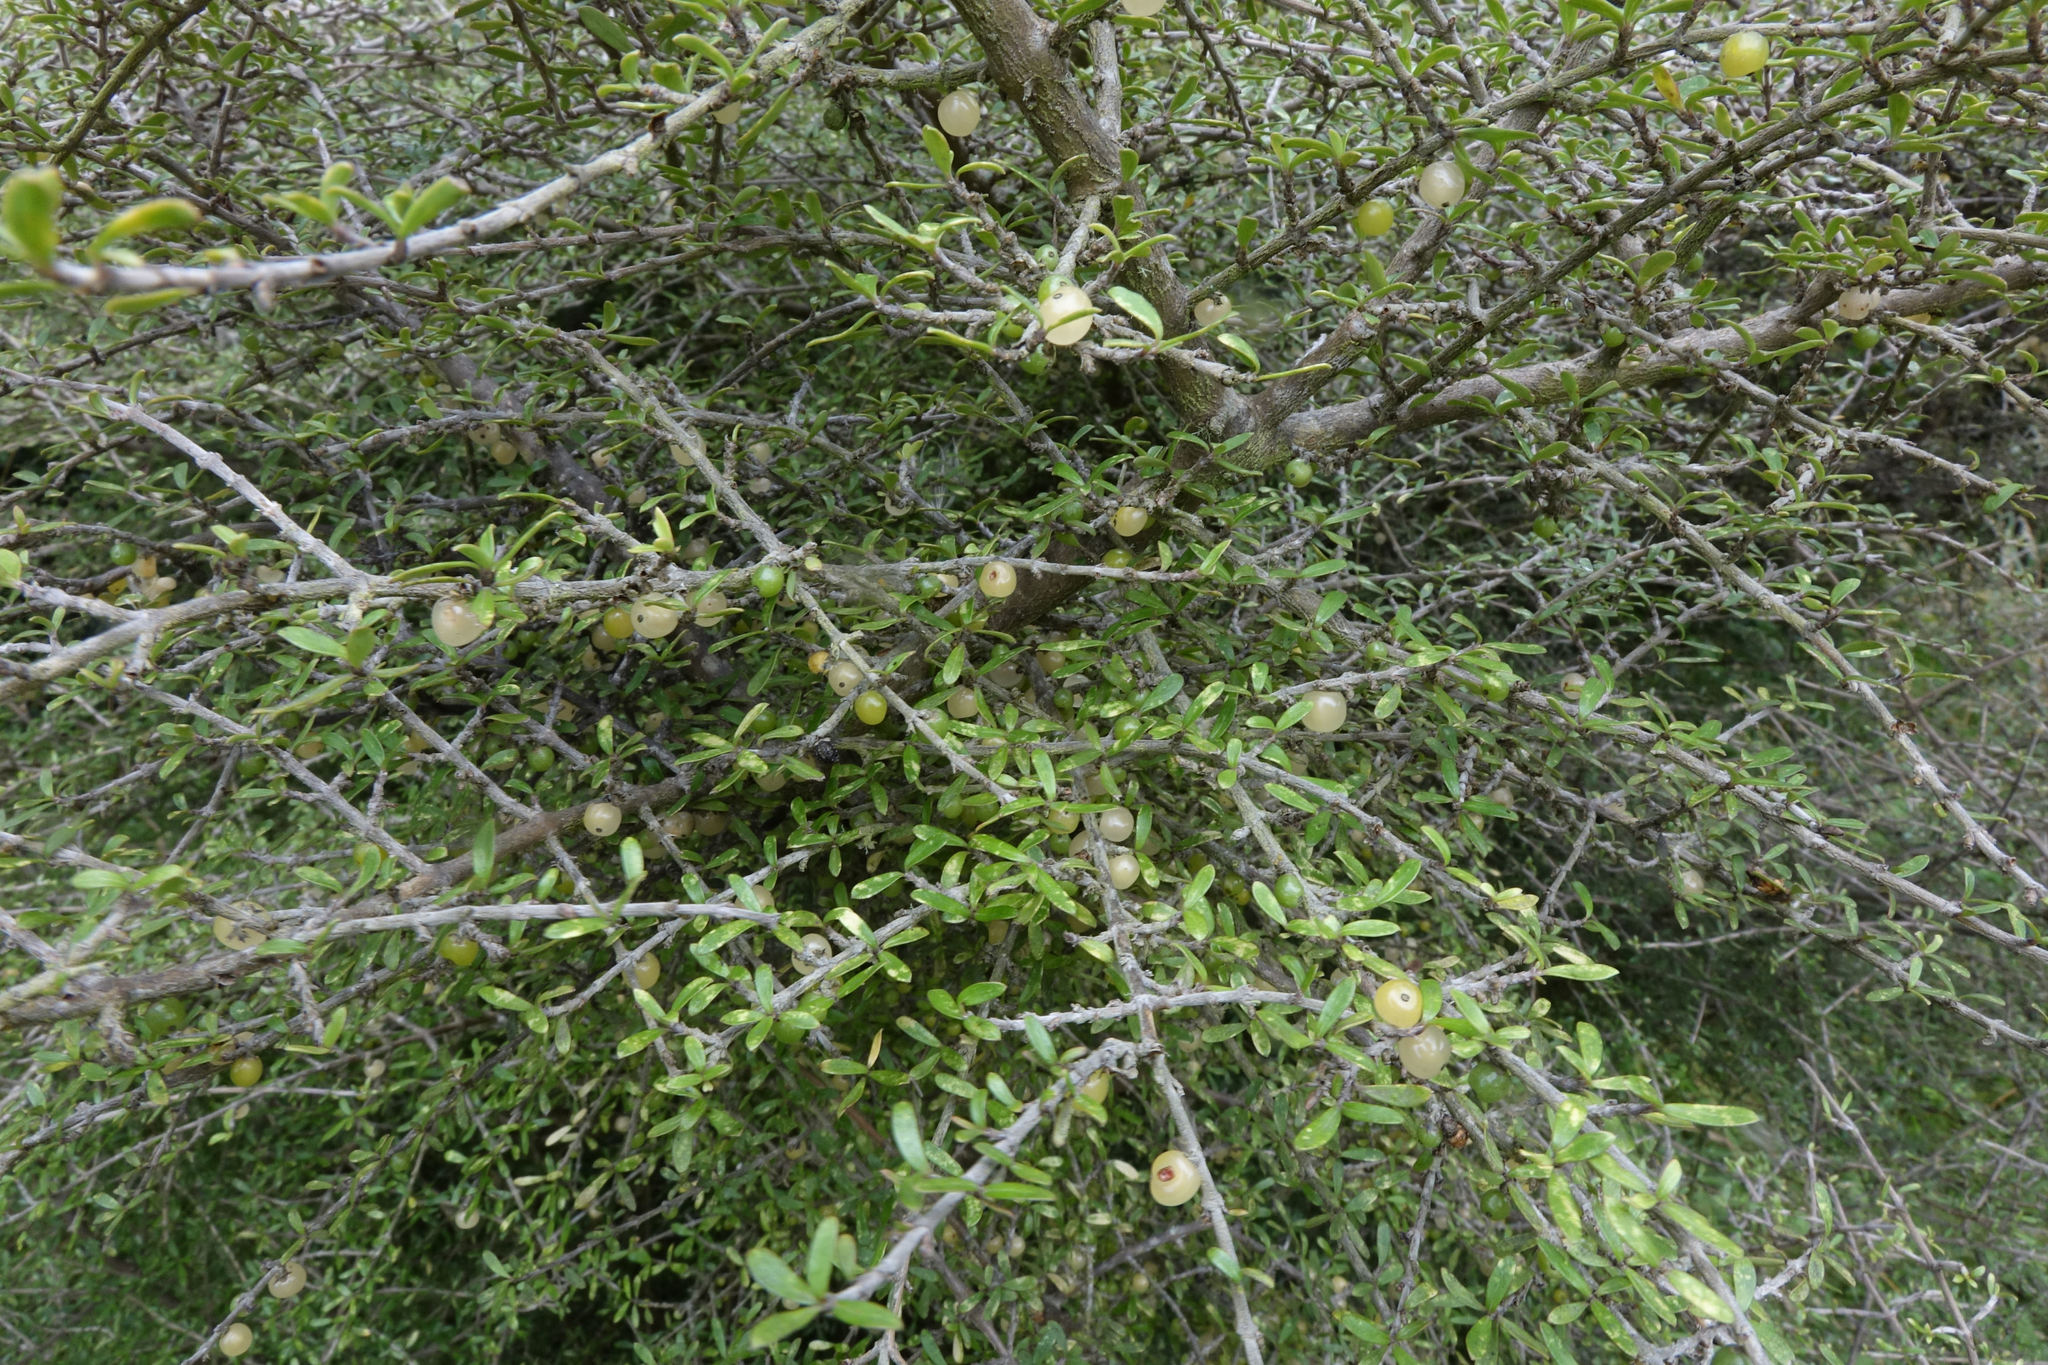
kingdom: Plantae
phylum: Tracheophyta
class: Magnoliopsida
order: Gentianales
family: Rubiaceae
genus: Coprosma
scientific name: Coprosma dumosa
